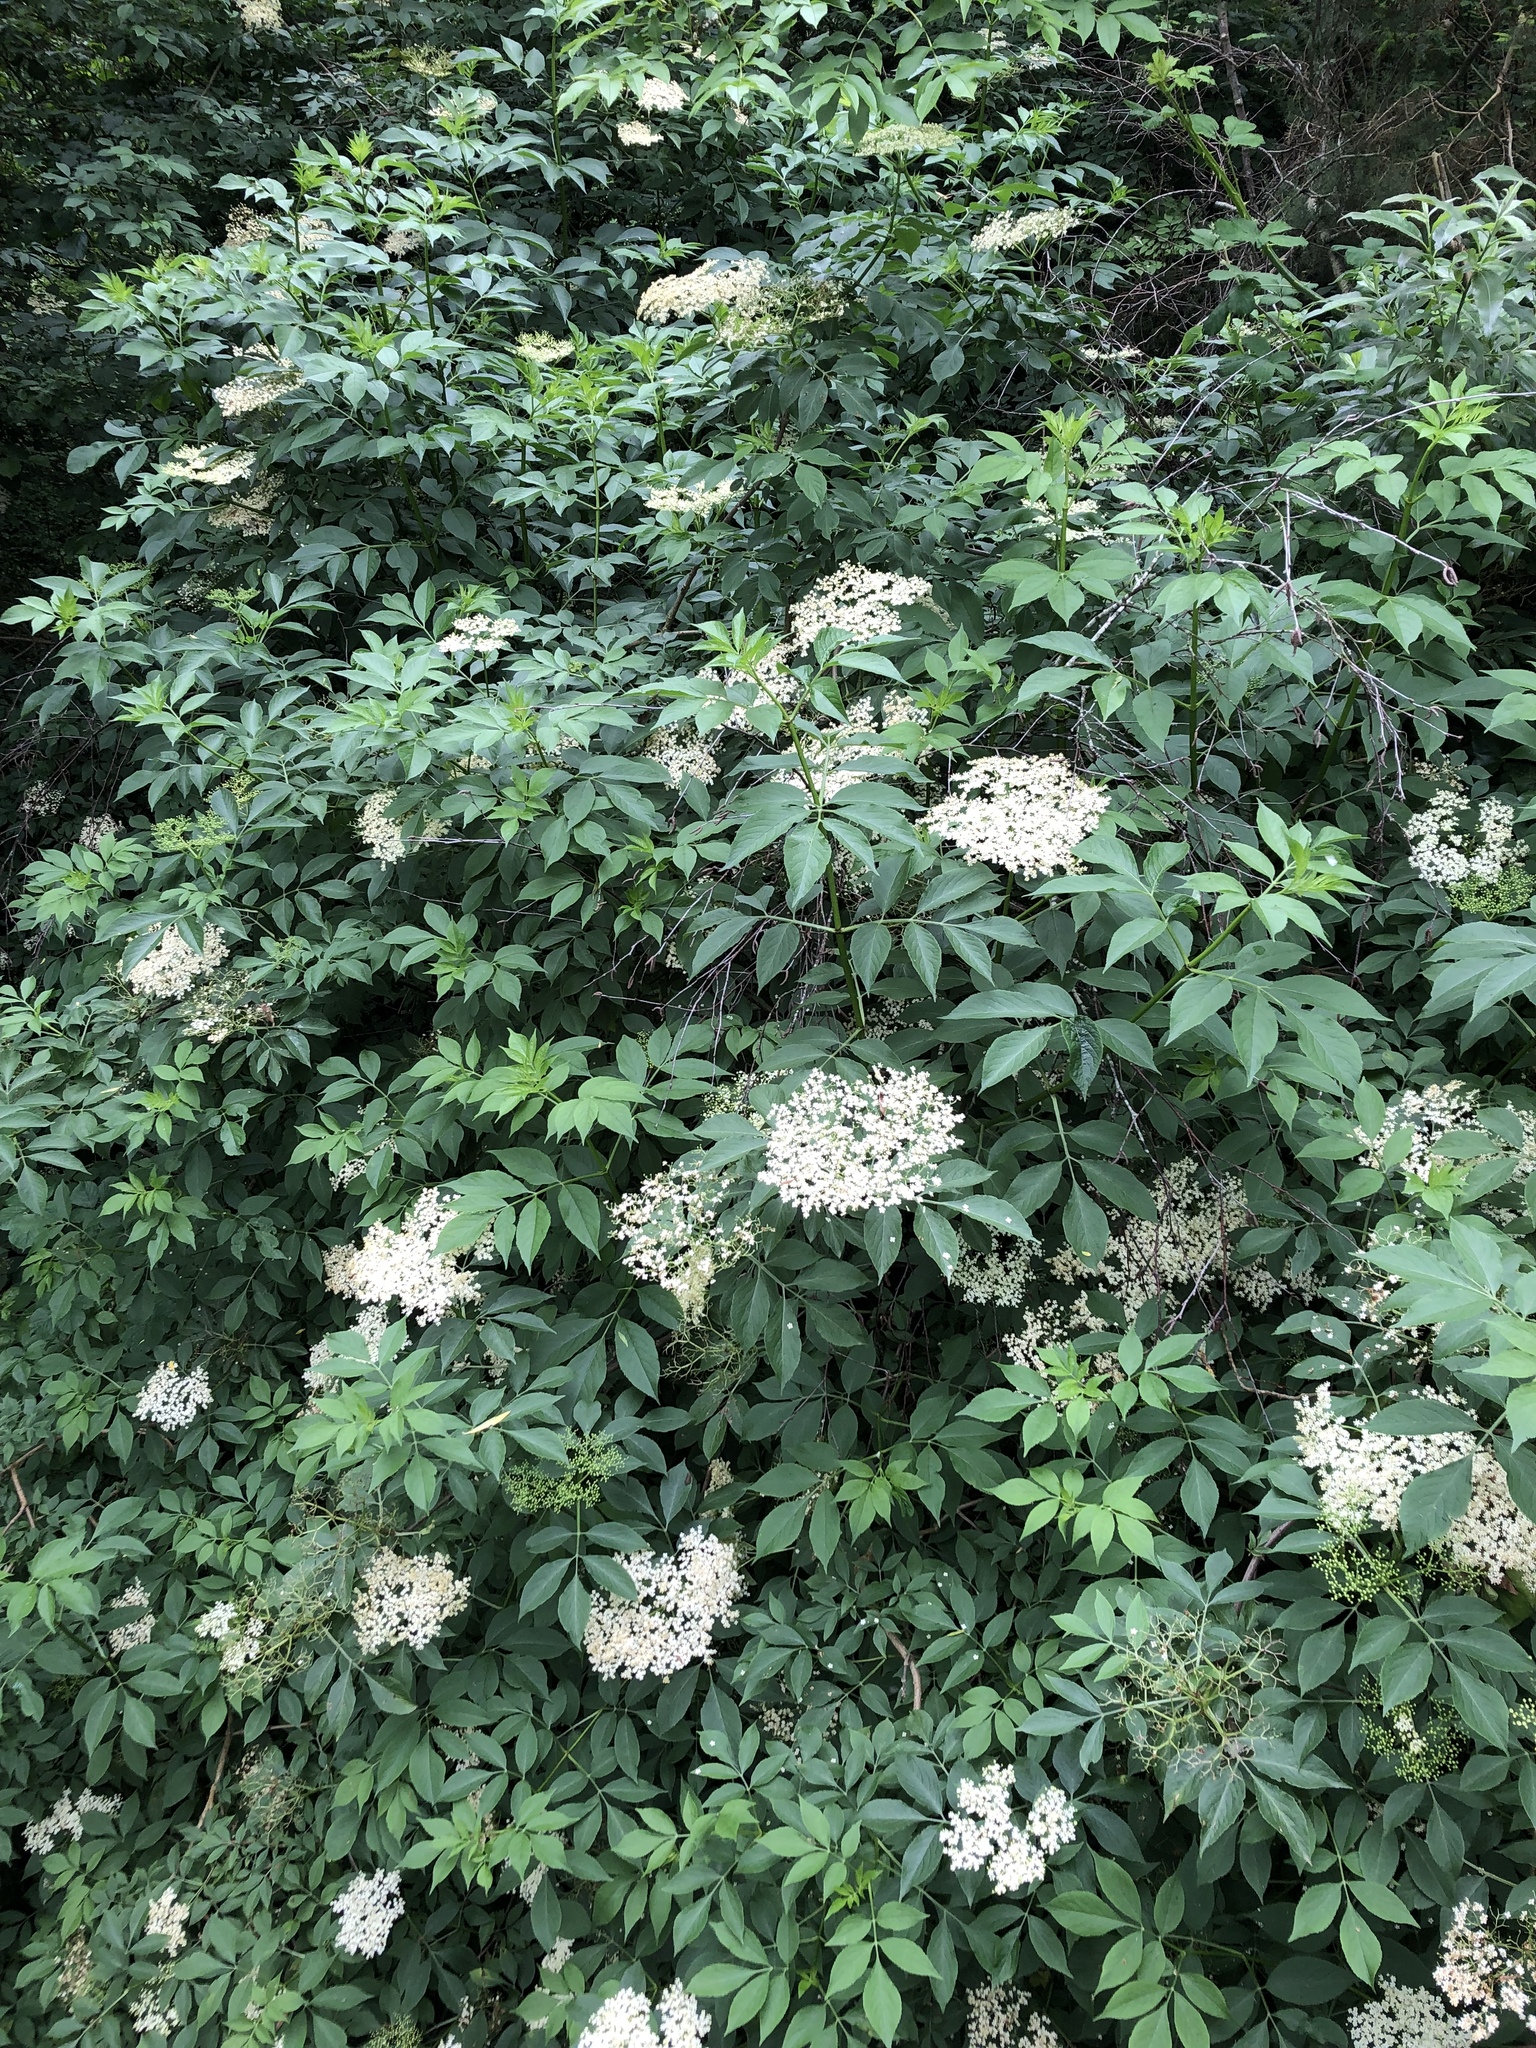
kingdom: Plantae
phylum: Tracheophyta
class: Magnoliopsida
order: Dipsacales
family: Viburnaceae
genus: Sambucus
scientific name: Sambucus nigra
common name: Elder
